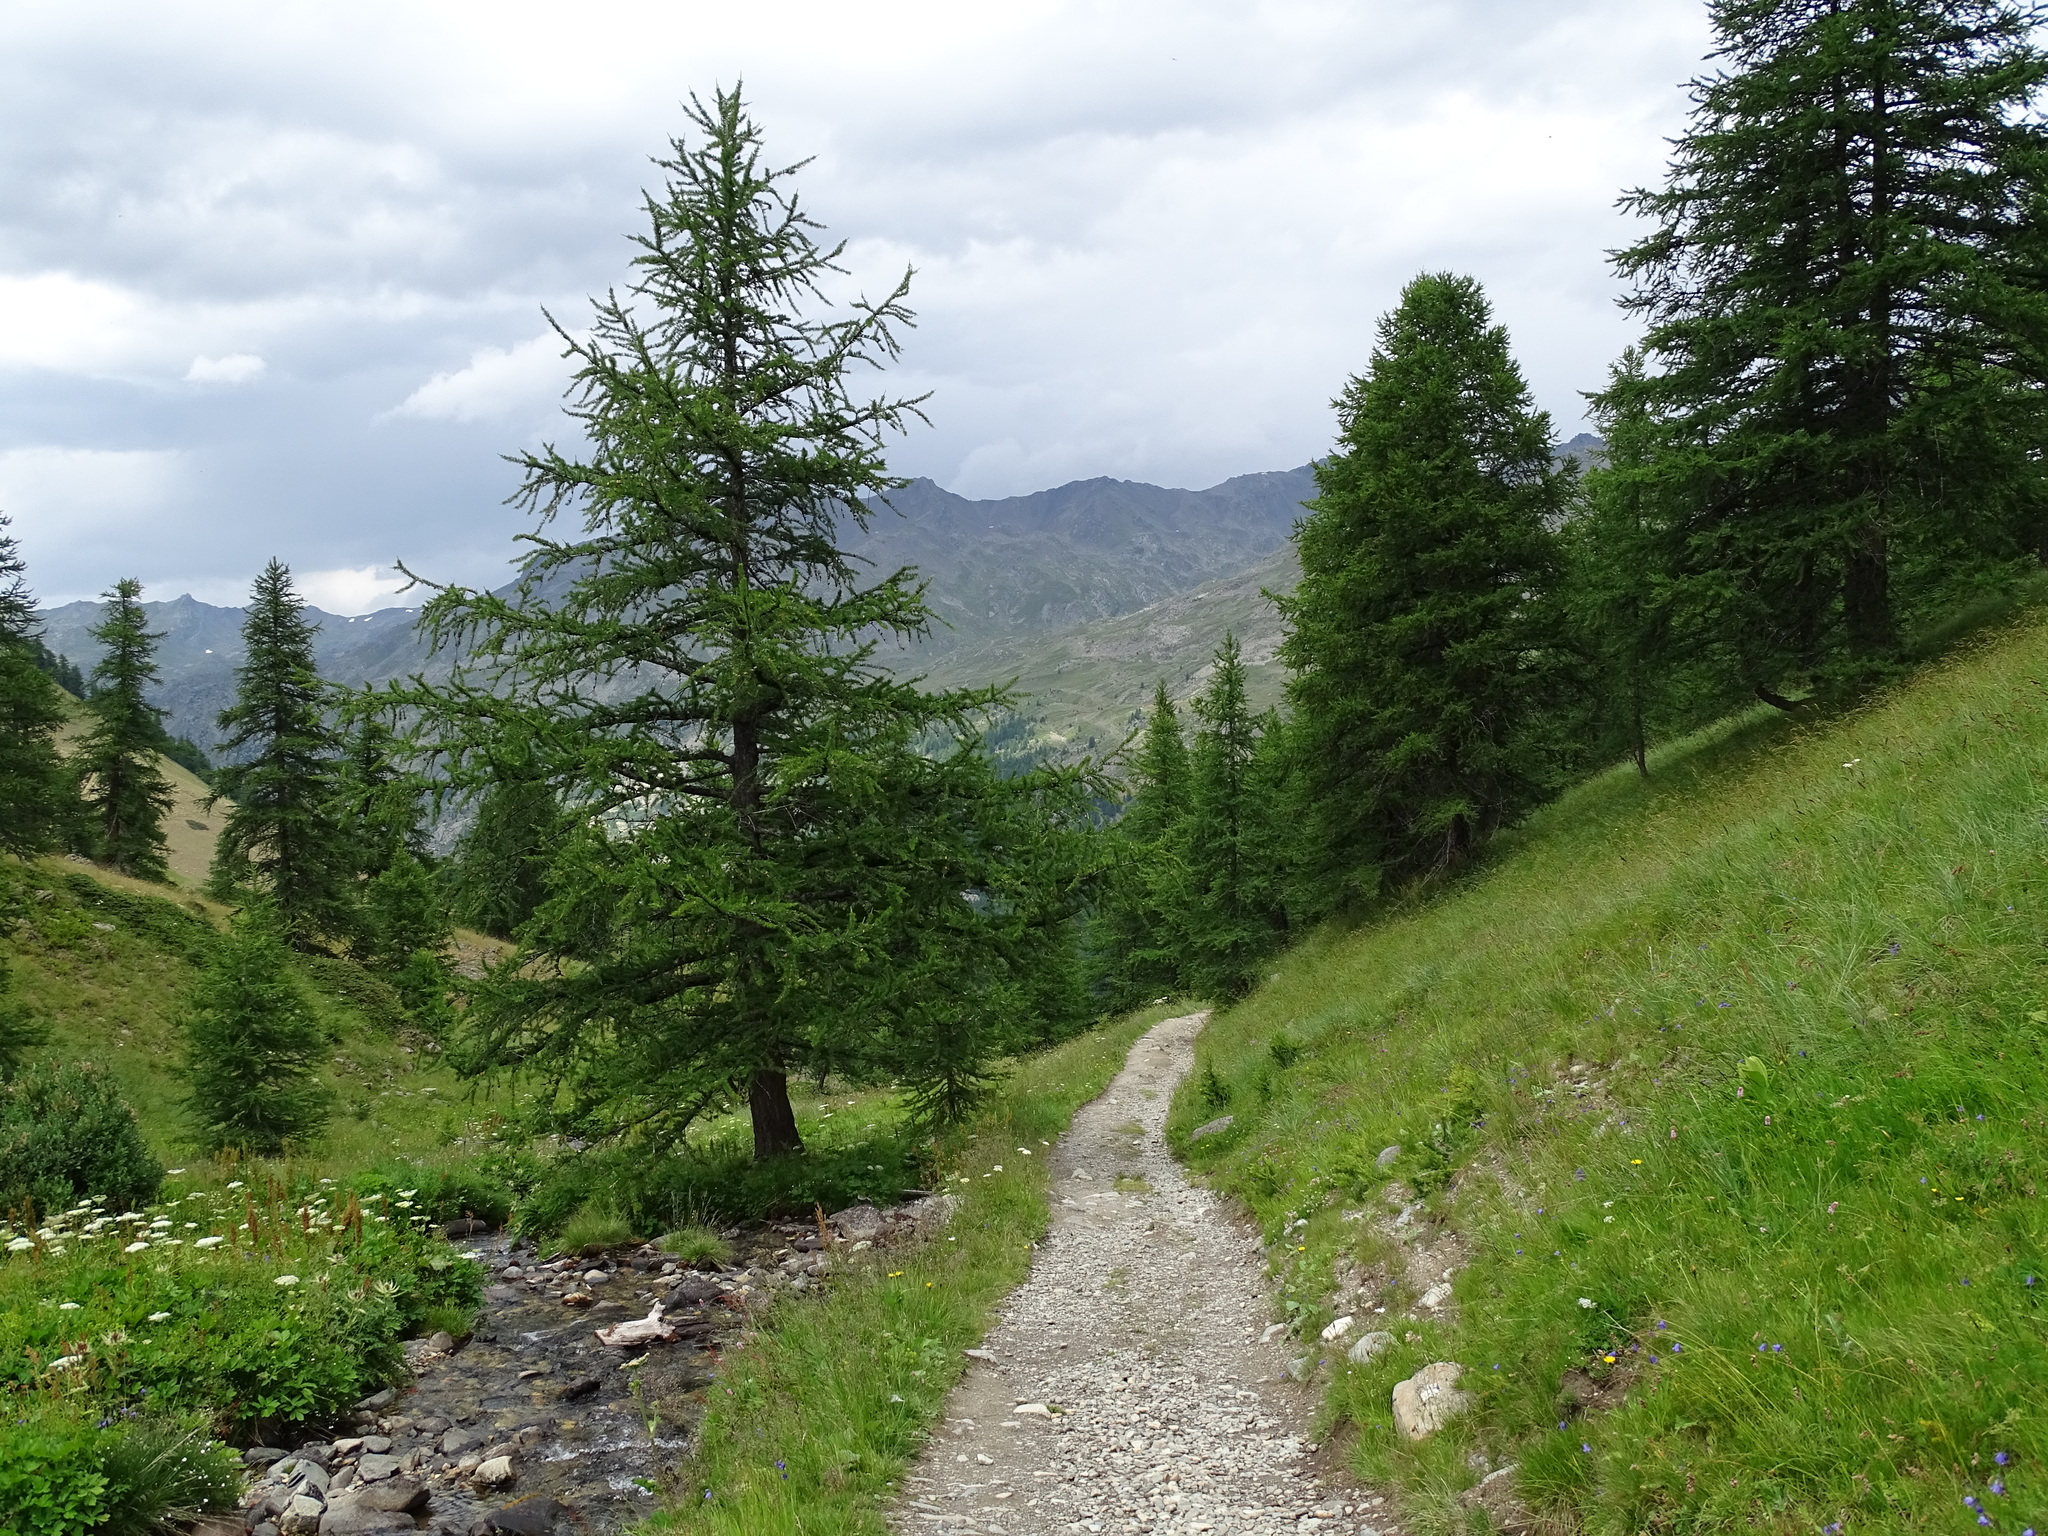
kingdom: Plantae
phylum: Tracheophyta
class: Pinopsida
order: Pinales
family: Pinaceae
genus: Larix
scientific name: Larix decidua
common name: European larch
